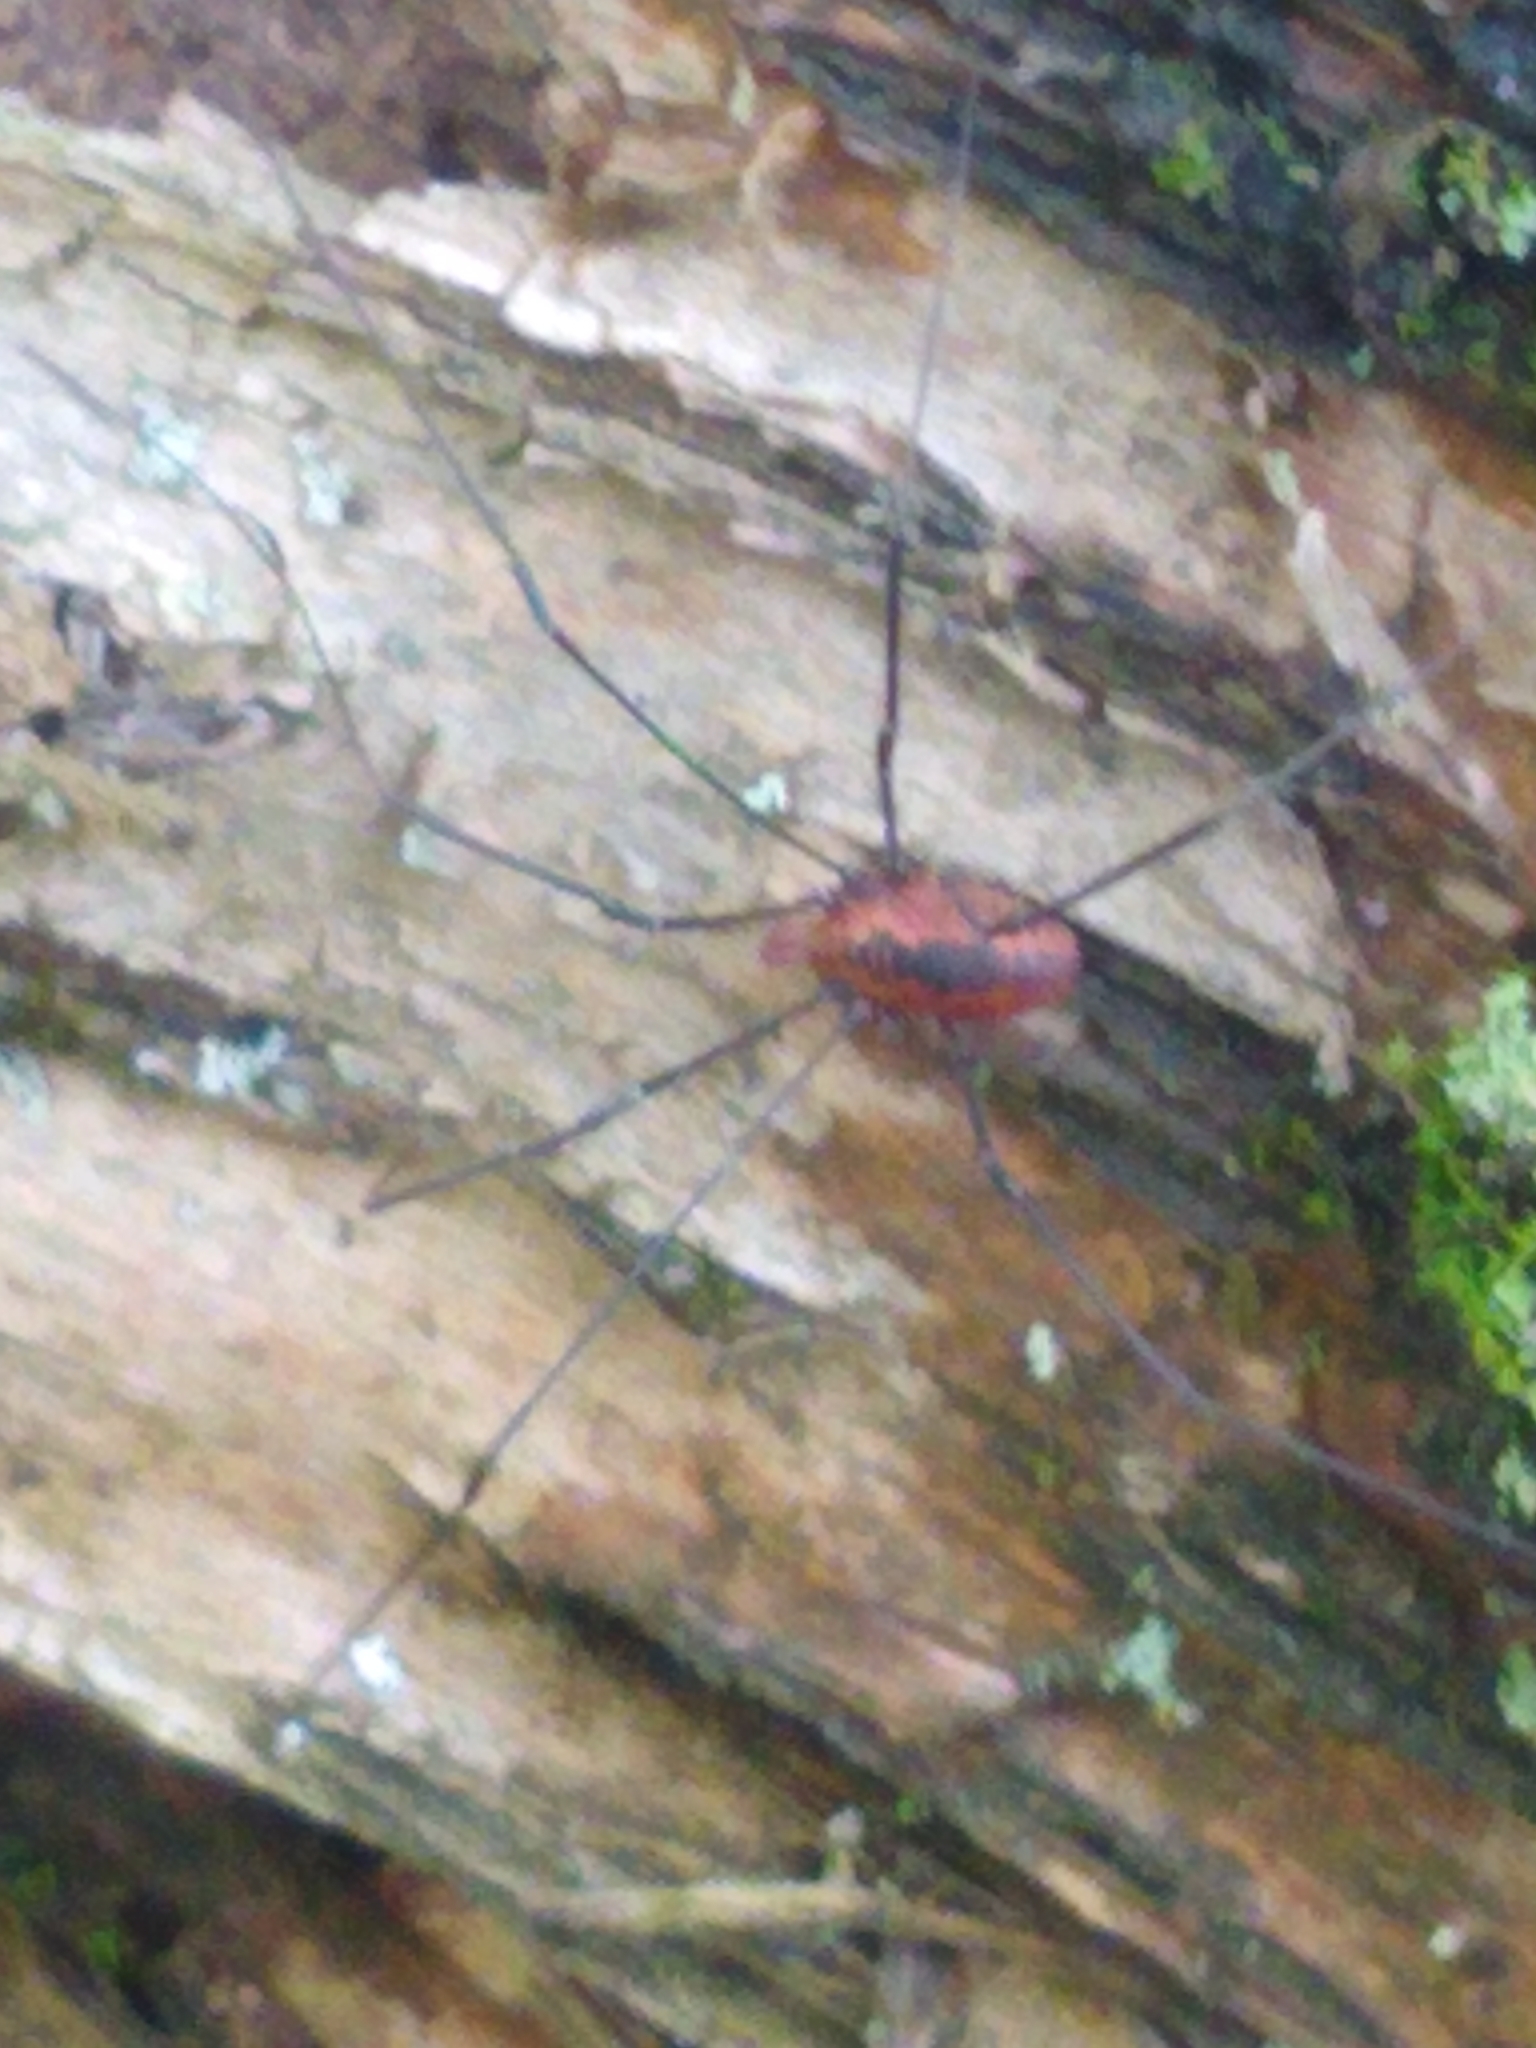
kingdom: Animalia
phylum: Arthropoda
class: Arachnida
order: Opiliones
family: Sclerosomatidae
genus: Leiobunum
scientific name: Leiobunum vittatum
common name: Eastern harvestman
